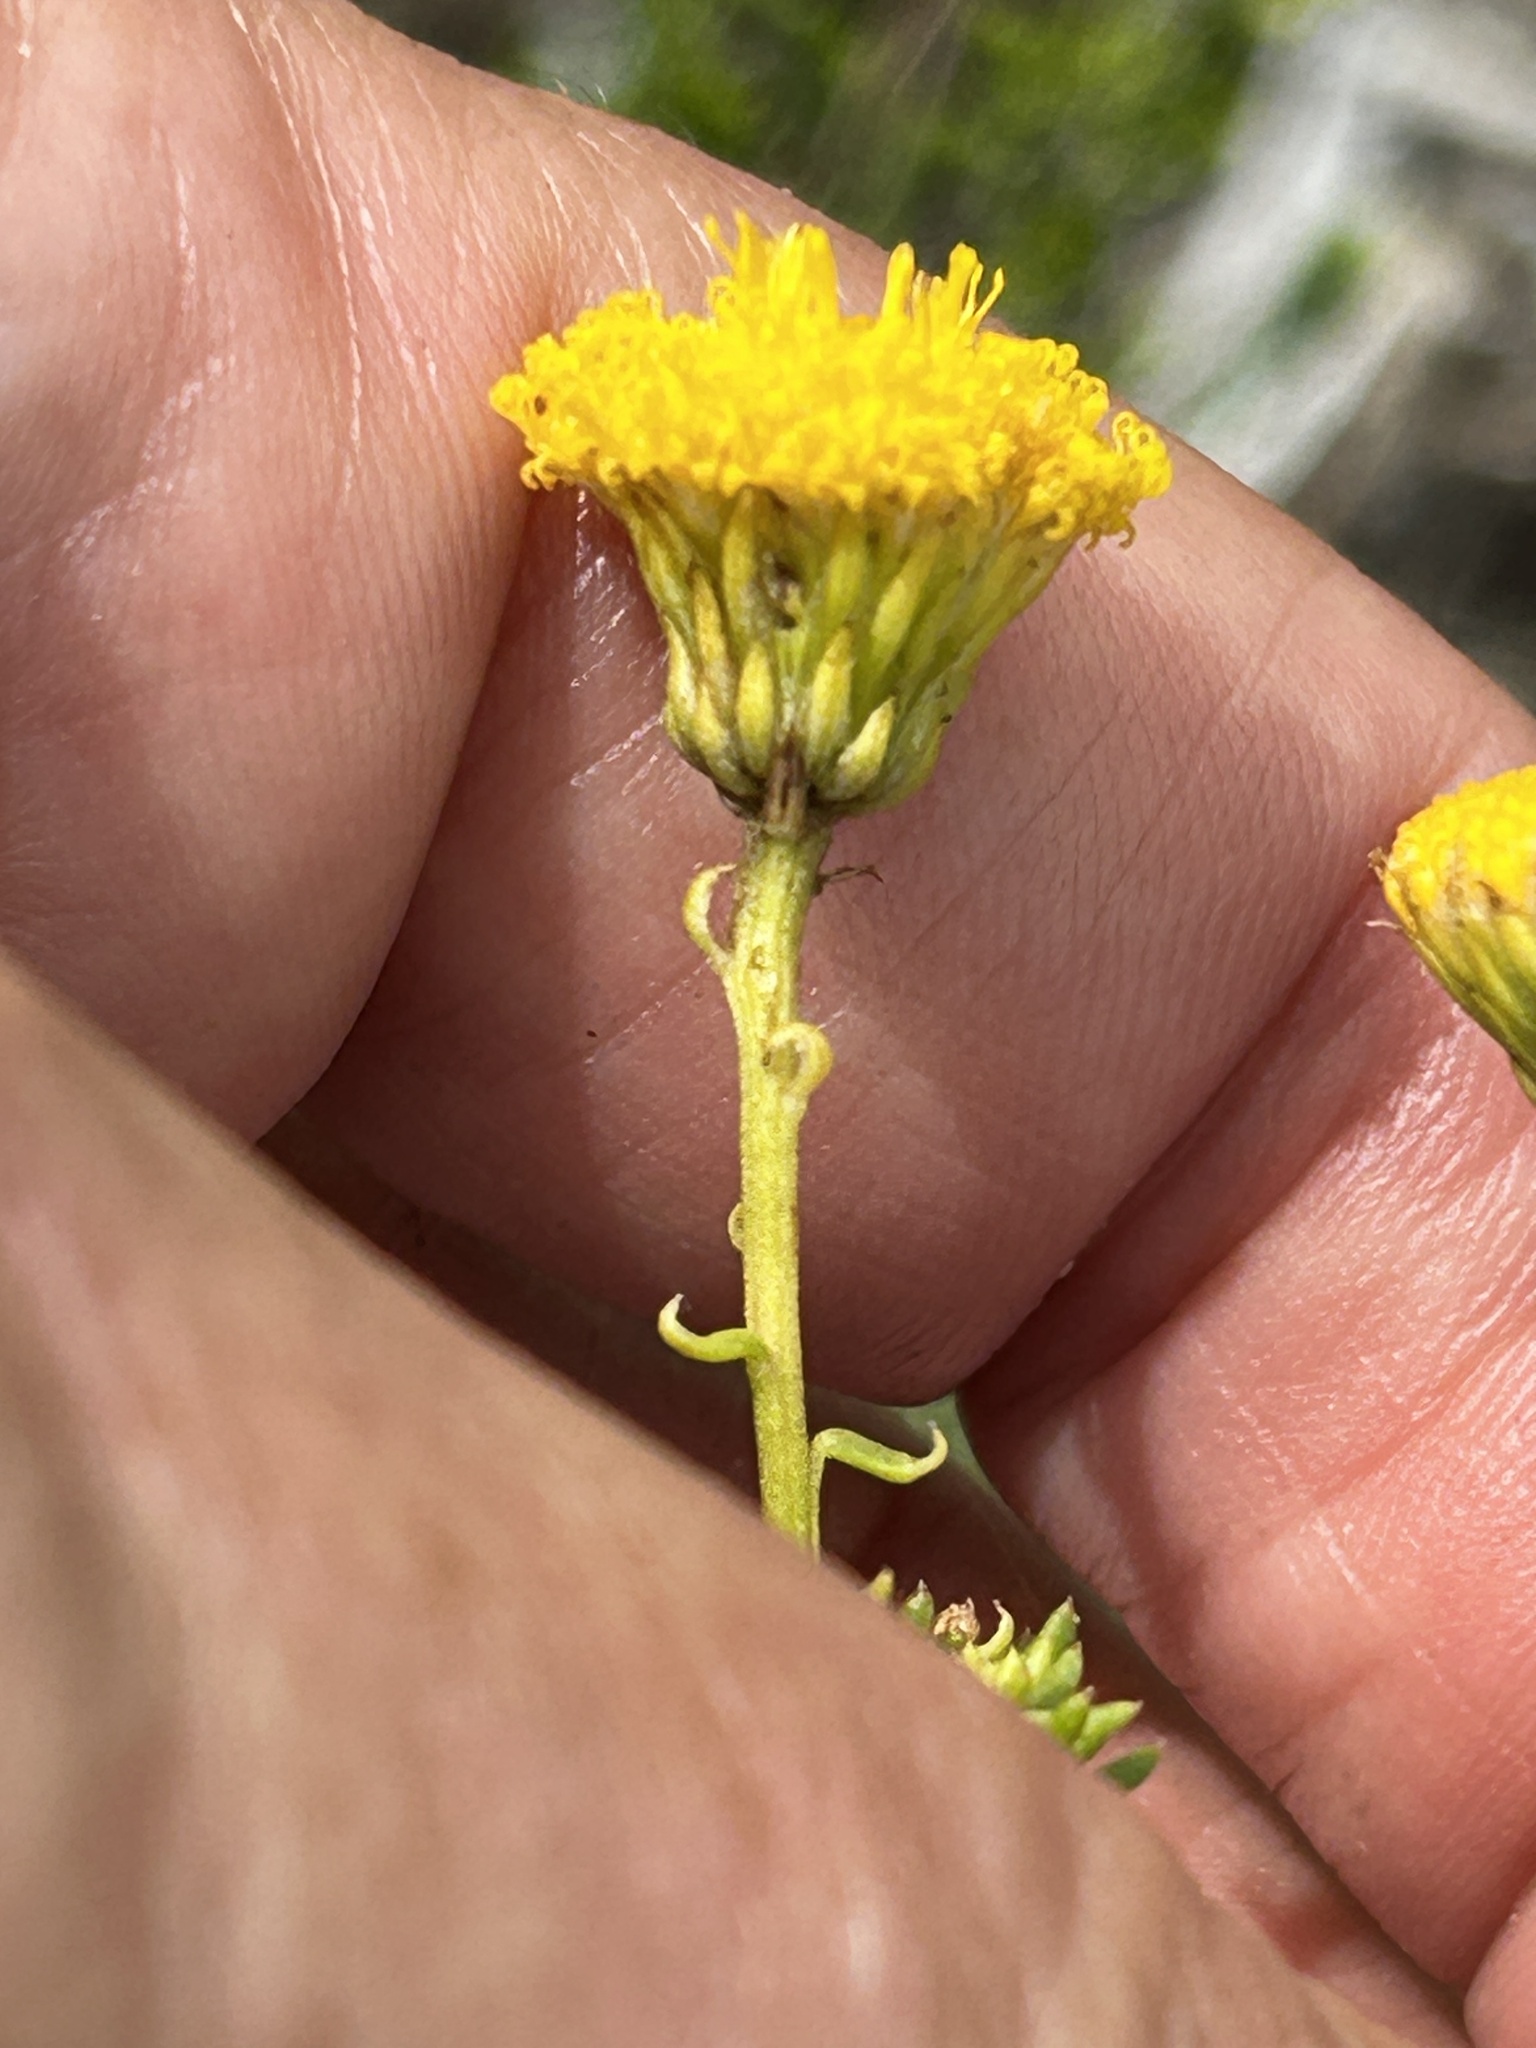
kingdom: Plantae
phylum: Tracheophyta
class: Magnoliopsida
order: Asterales
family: Asteraceae
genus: Chrysocoma
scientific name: Chrysocoma cernua
